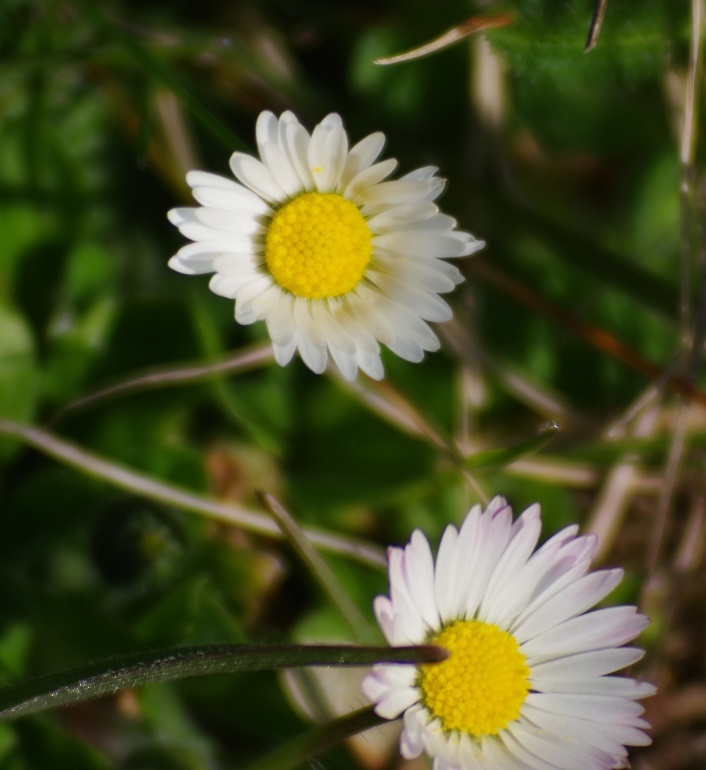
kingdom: Plantae
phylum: Tracheophyta
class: Magnoliopsida
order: Asterales
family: Asteraceae
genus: Bellis
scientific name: Bellis perennis
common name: Lawndaisy
